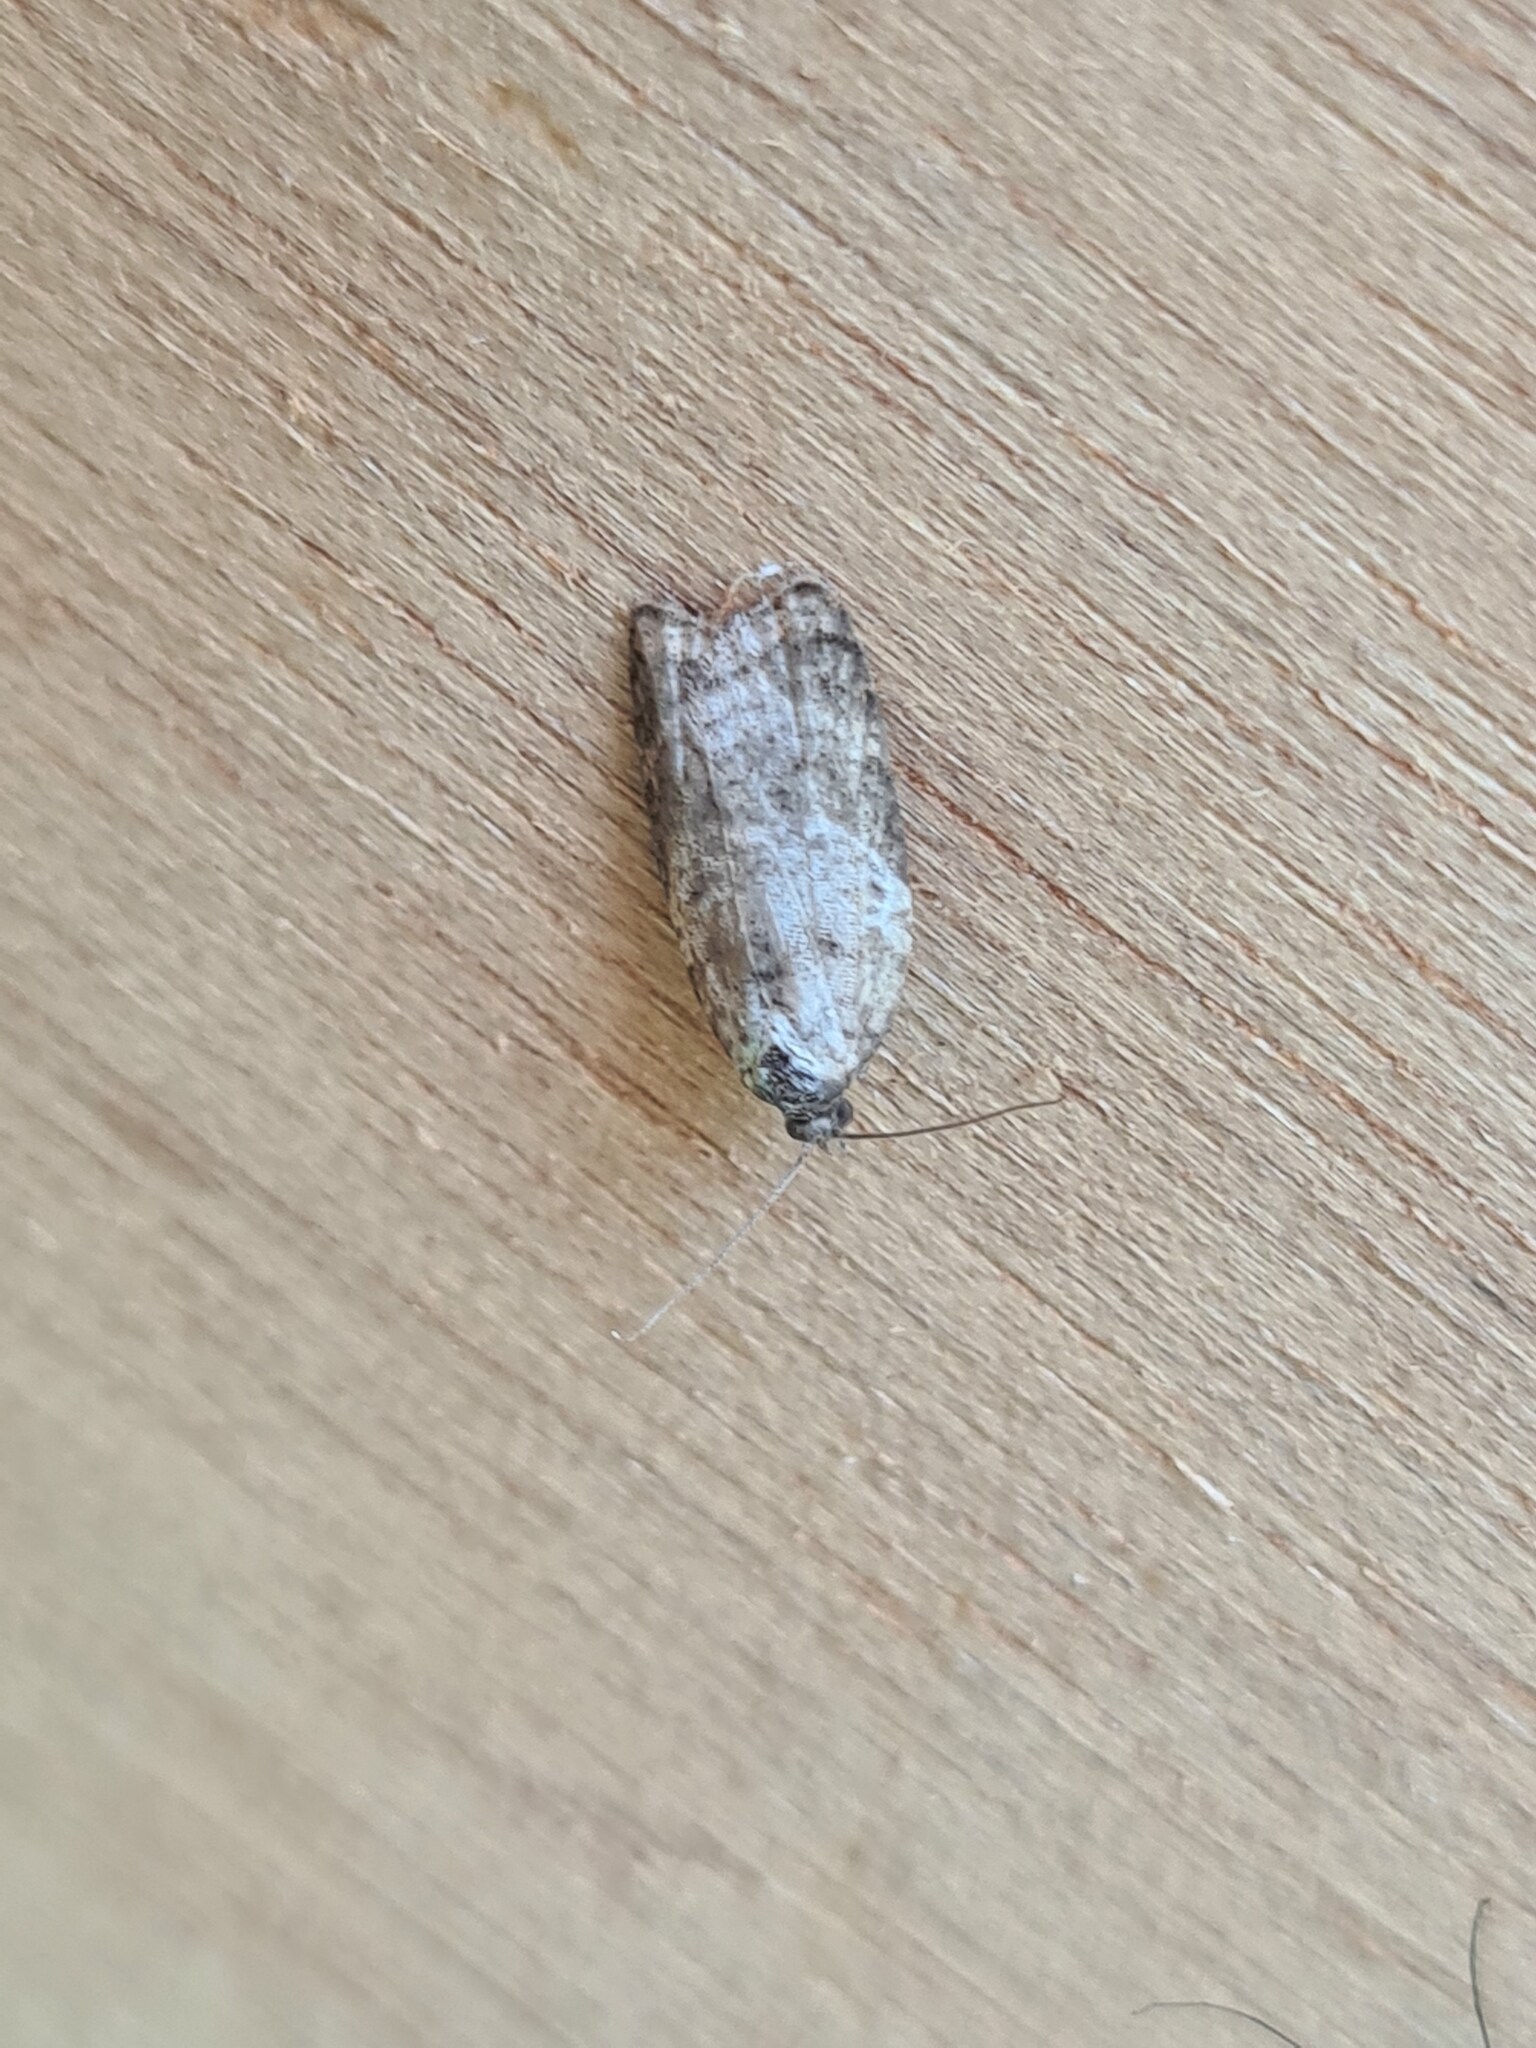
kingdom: Animalia
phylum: Arthropoda
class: Insecta
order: Lepidoptera
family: Tortricidae
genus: Acleris
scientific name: Acleris variegana
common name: Garden rose tortrix
